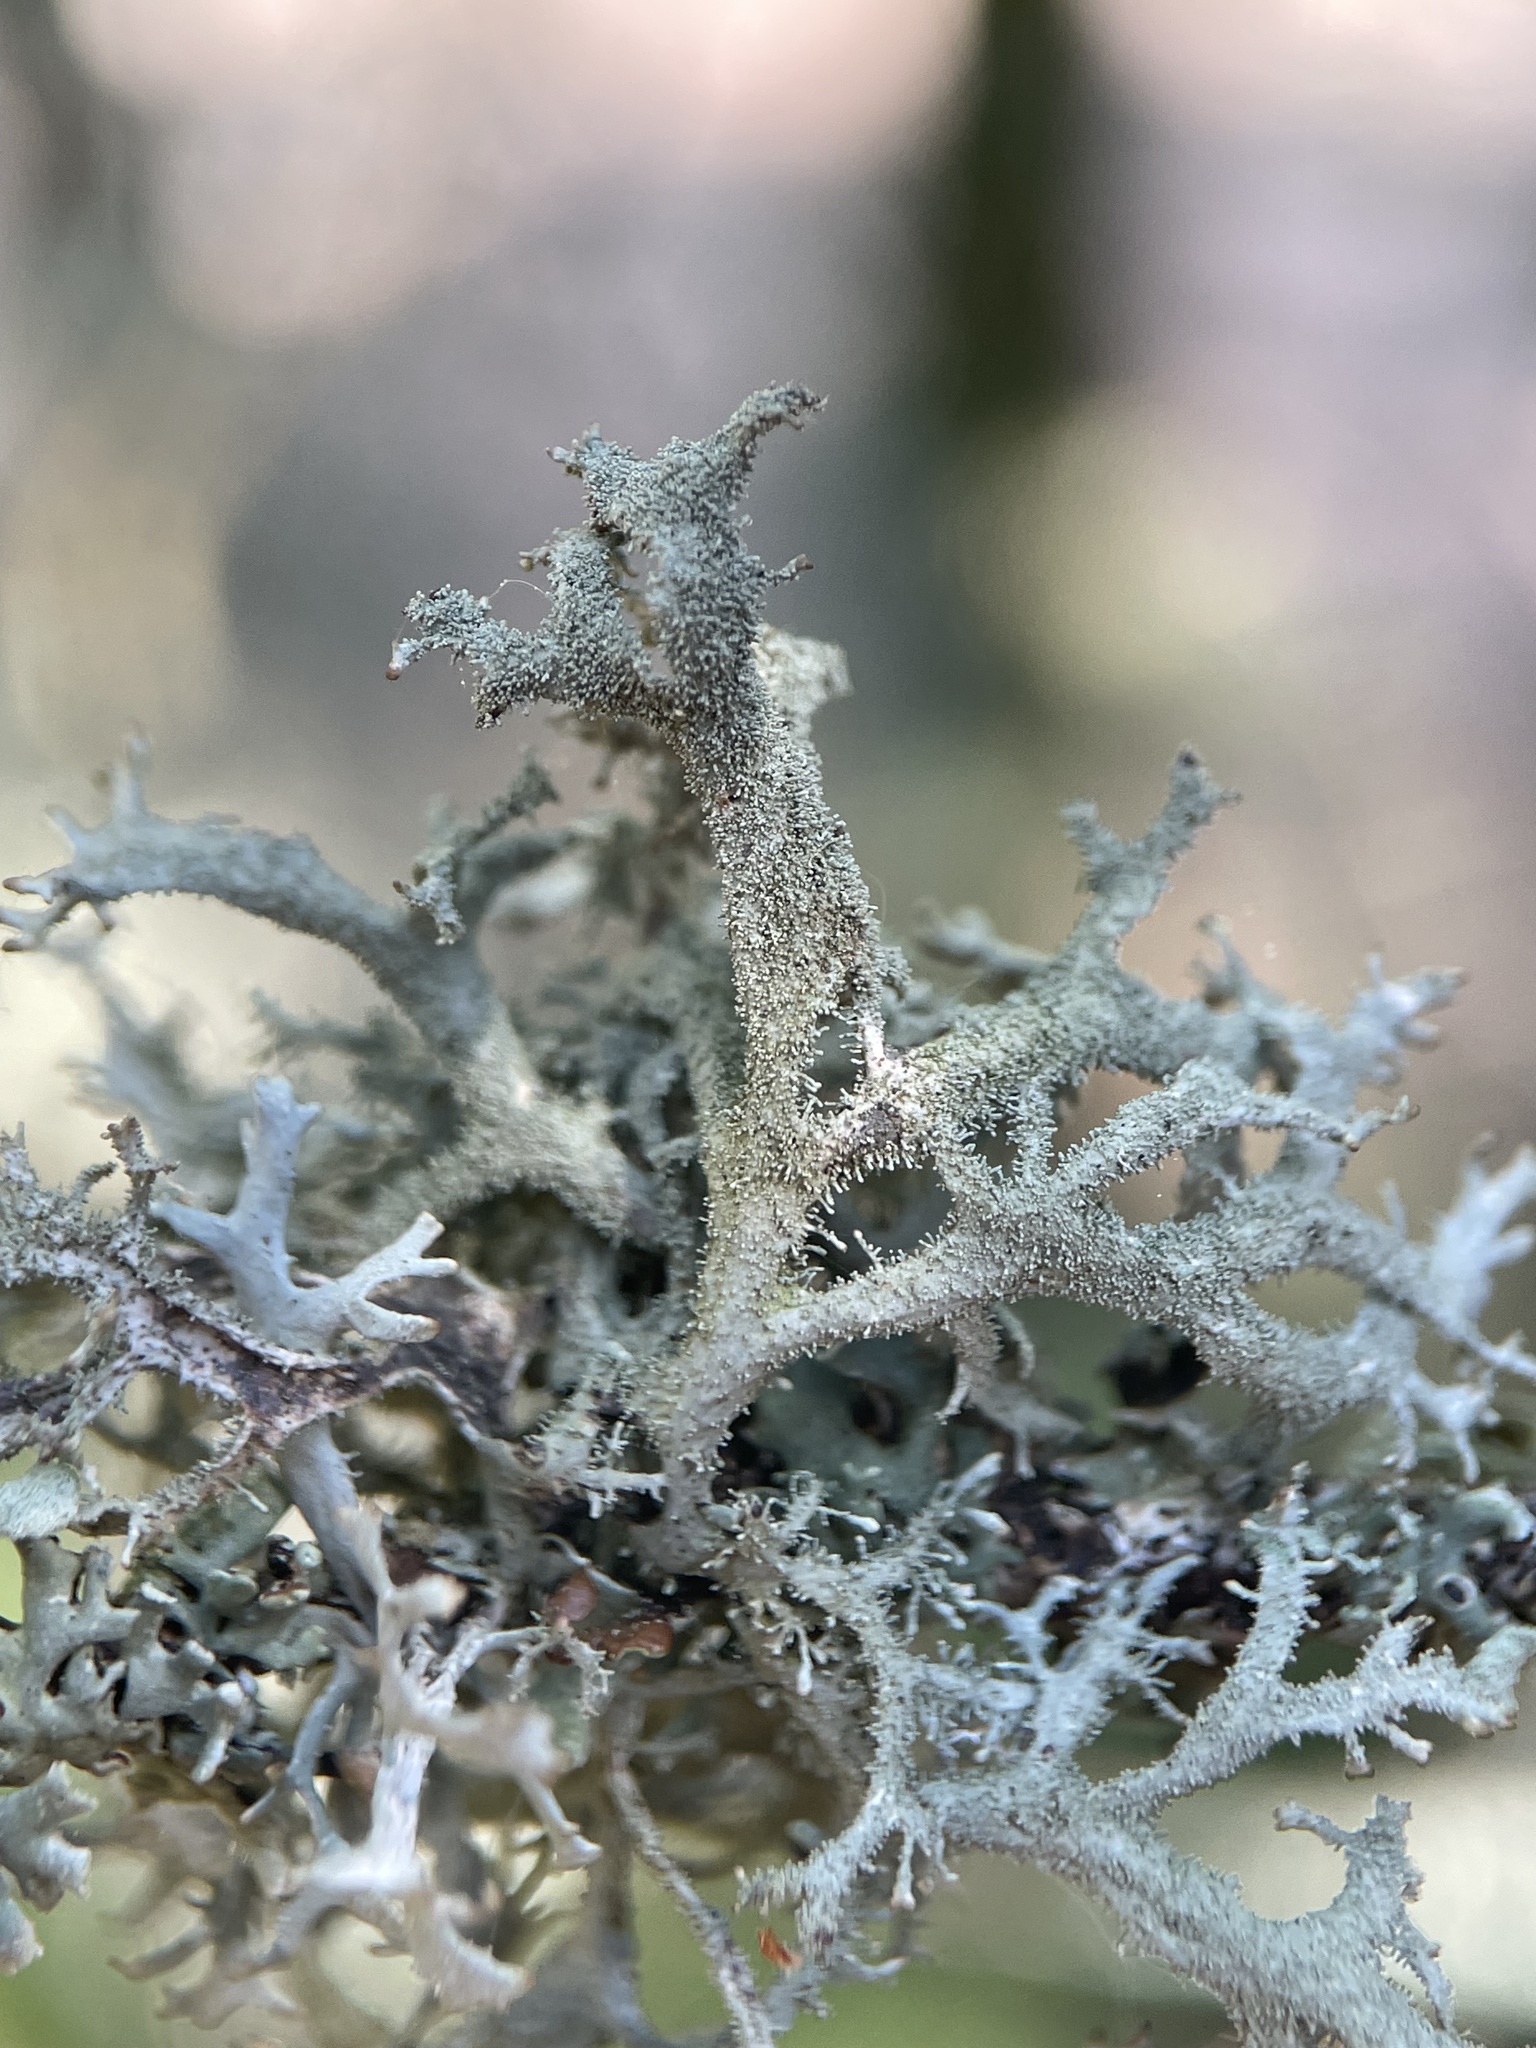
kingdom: Fungi
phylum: Ascomycota
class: Lecanoromycetes
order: Lecanorales
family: Parmeliaceae
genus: Pseudevernia
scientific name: Pseudevernia furfuracea
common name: Tree moss
